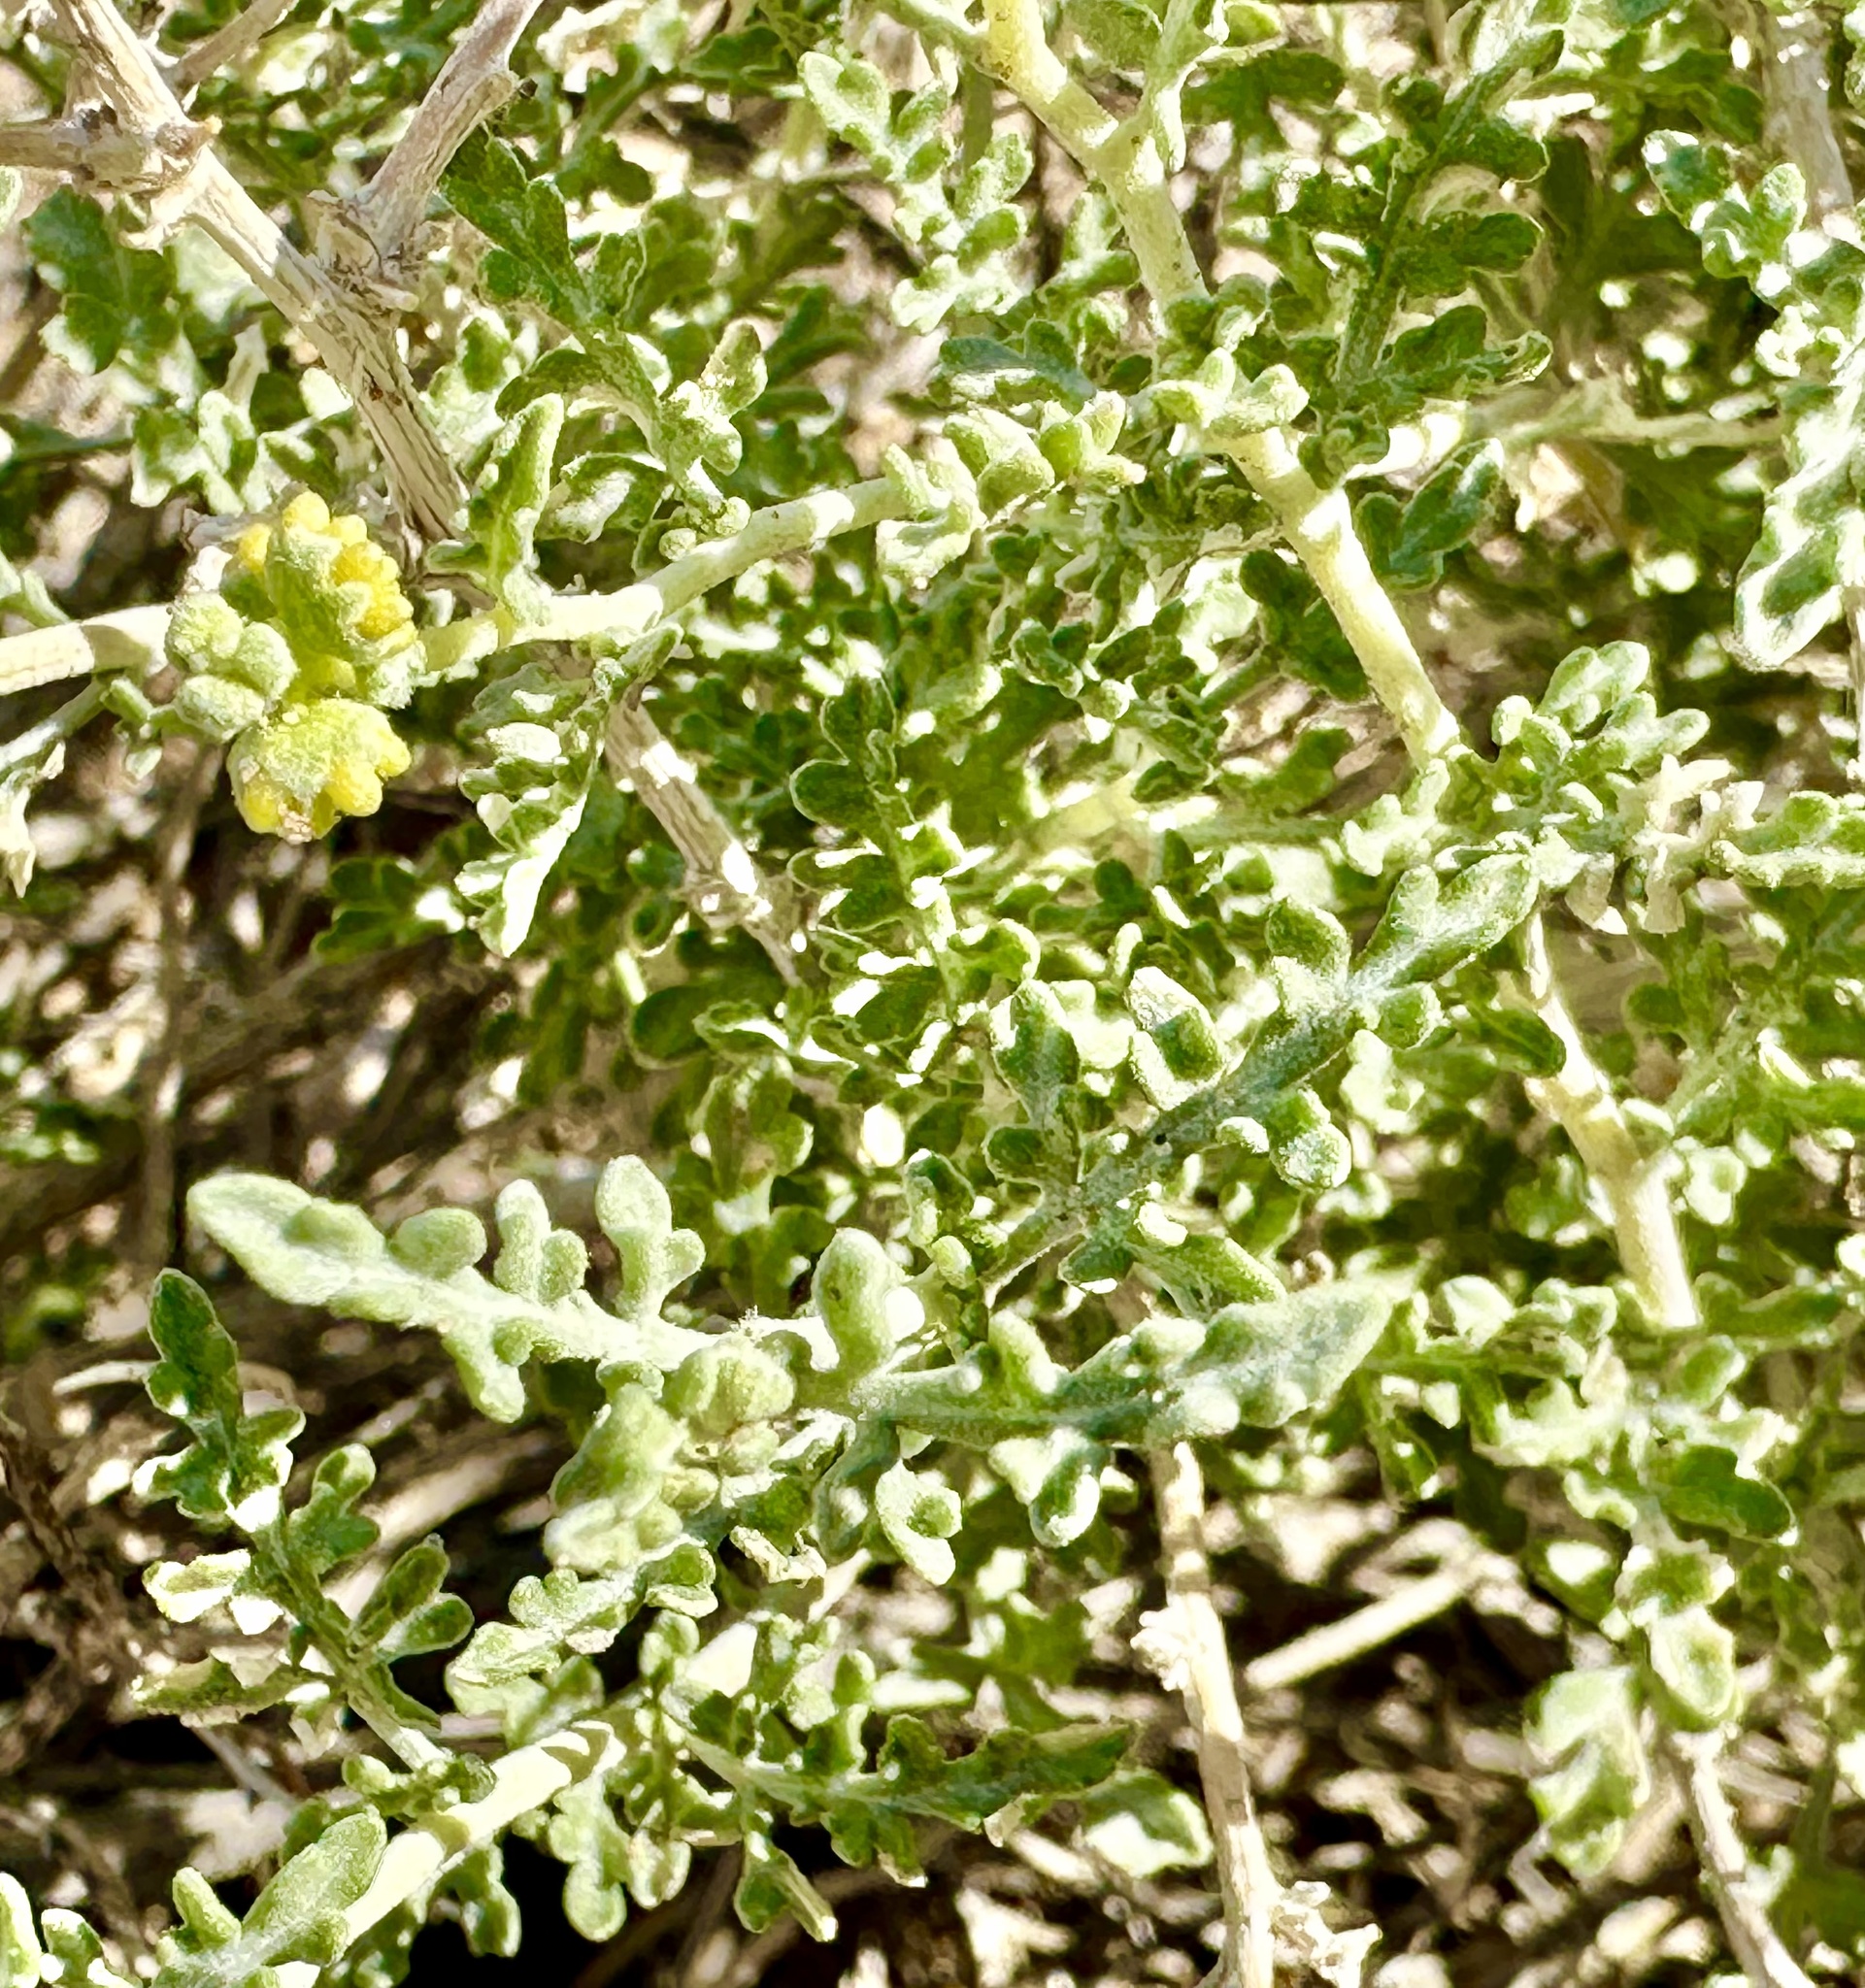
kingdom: Plantae
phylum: Tracheophyta
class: Magnoliopsida
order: Asterales
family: Asteraceae
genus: Ambrosia
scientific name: Ambrosia dumosa
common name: Bur-sage
